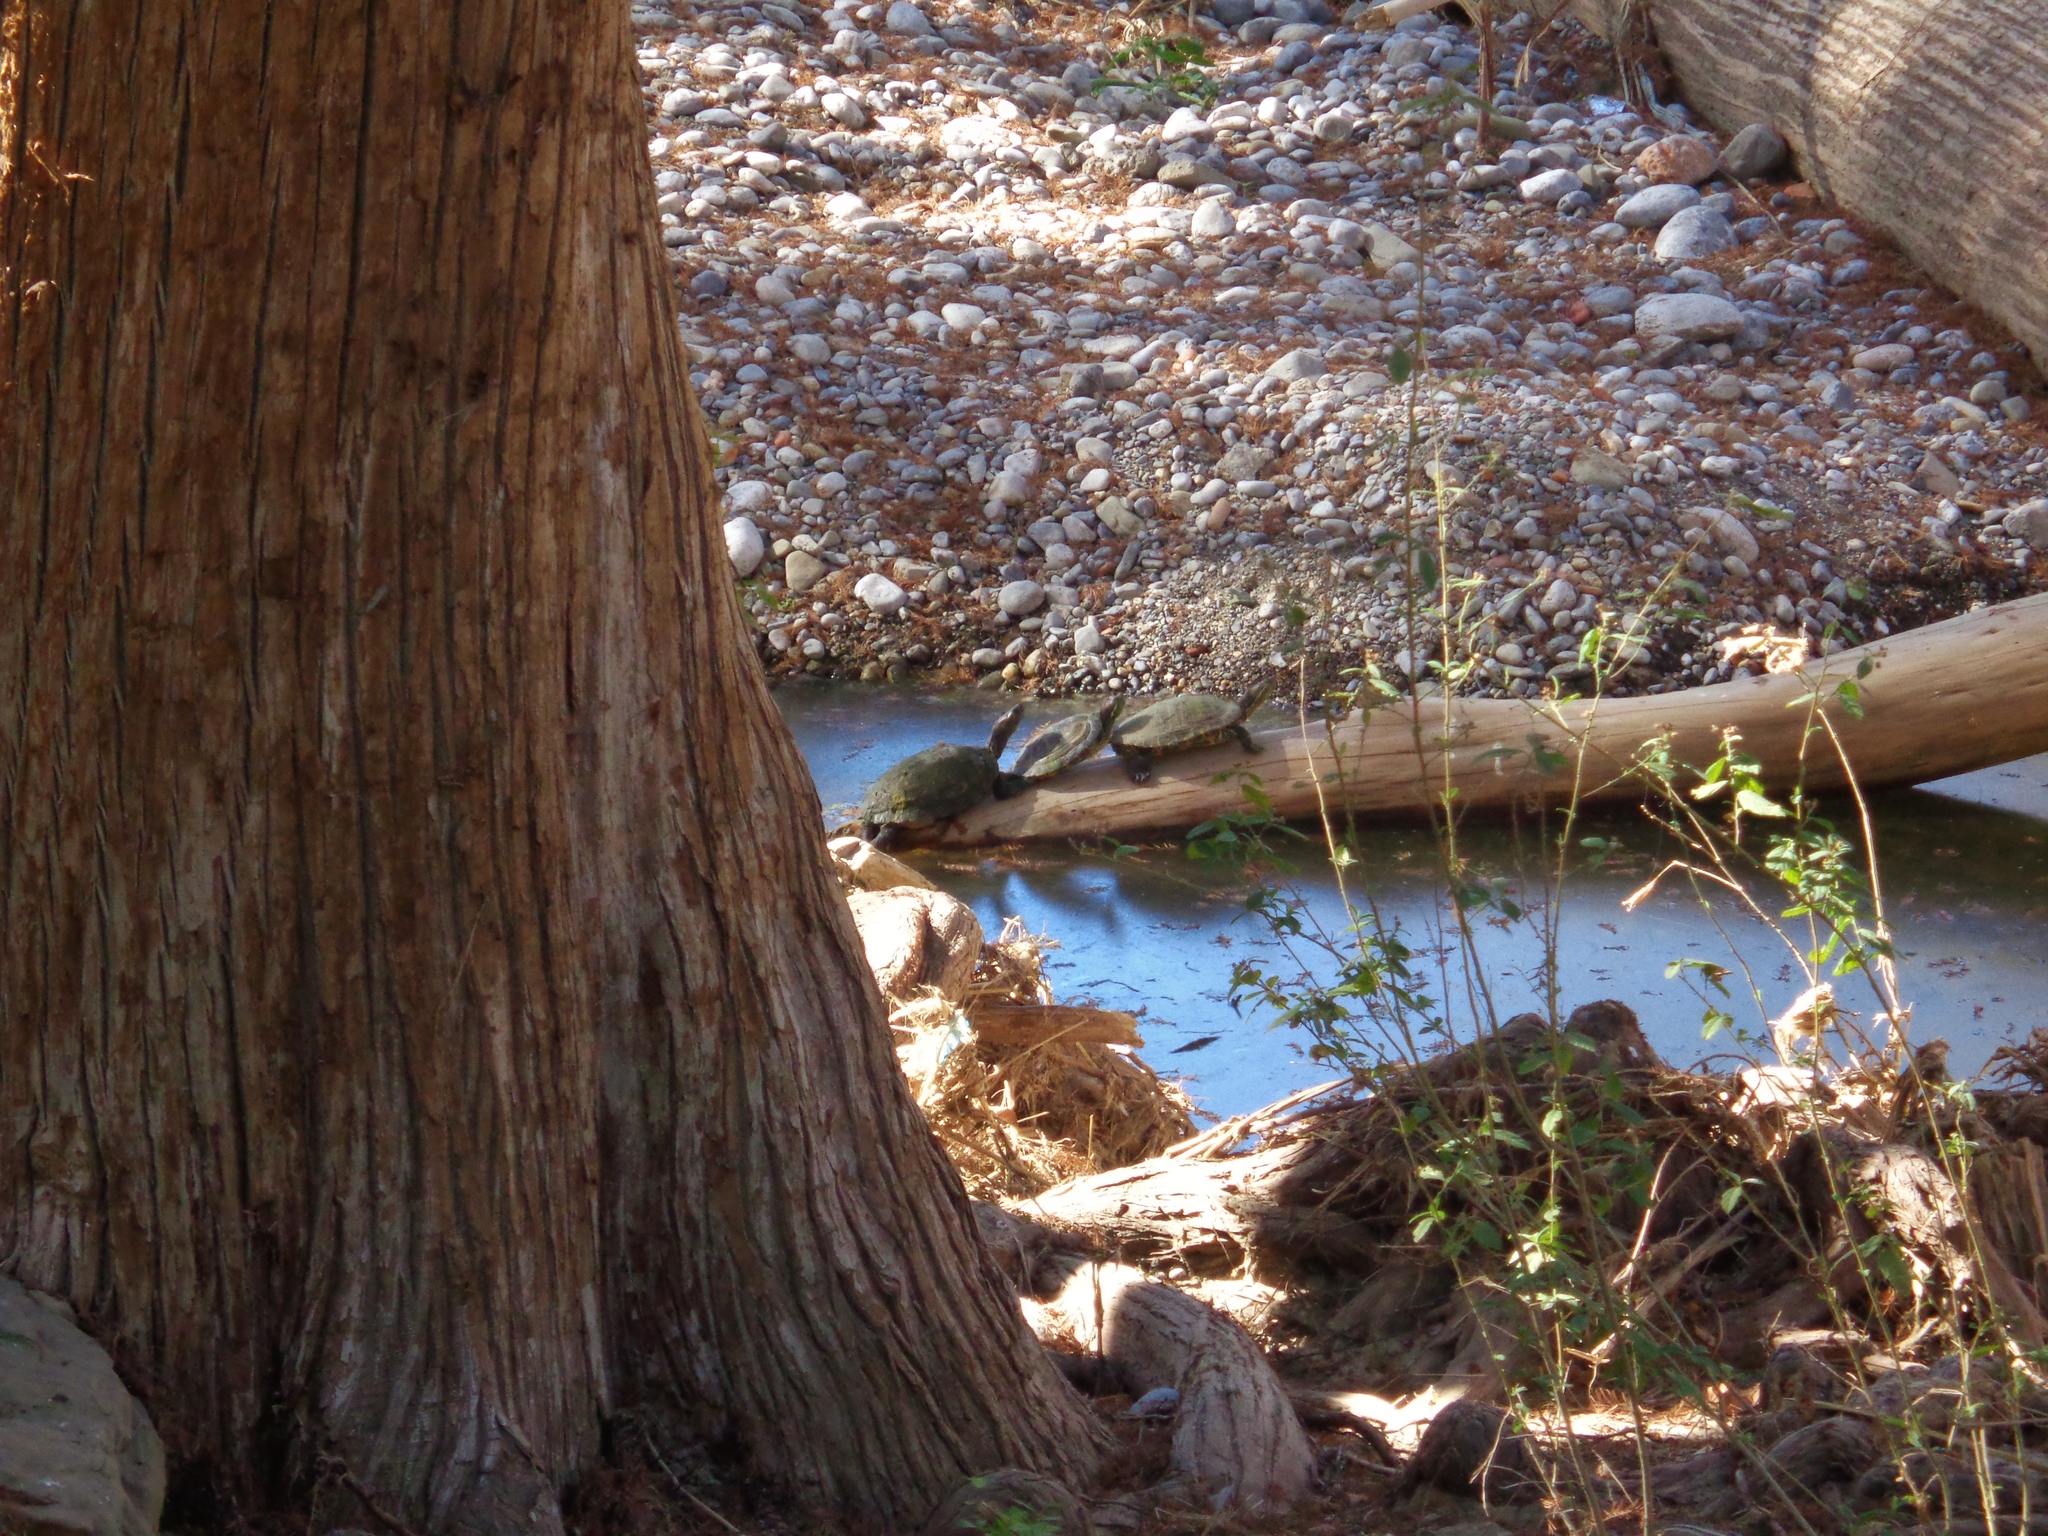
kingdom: Animalia
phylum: Chordata
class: Testudines
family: Emydidae
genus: Trachemys
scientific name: Trachemys scripta
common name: Slider
